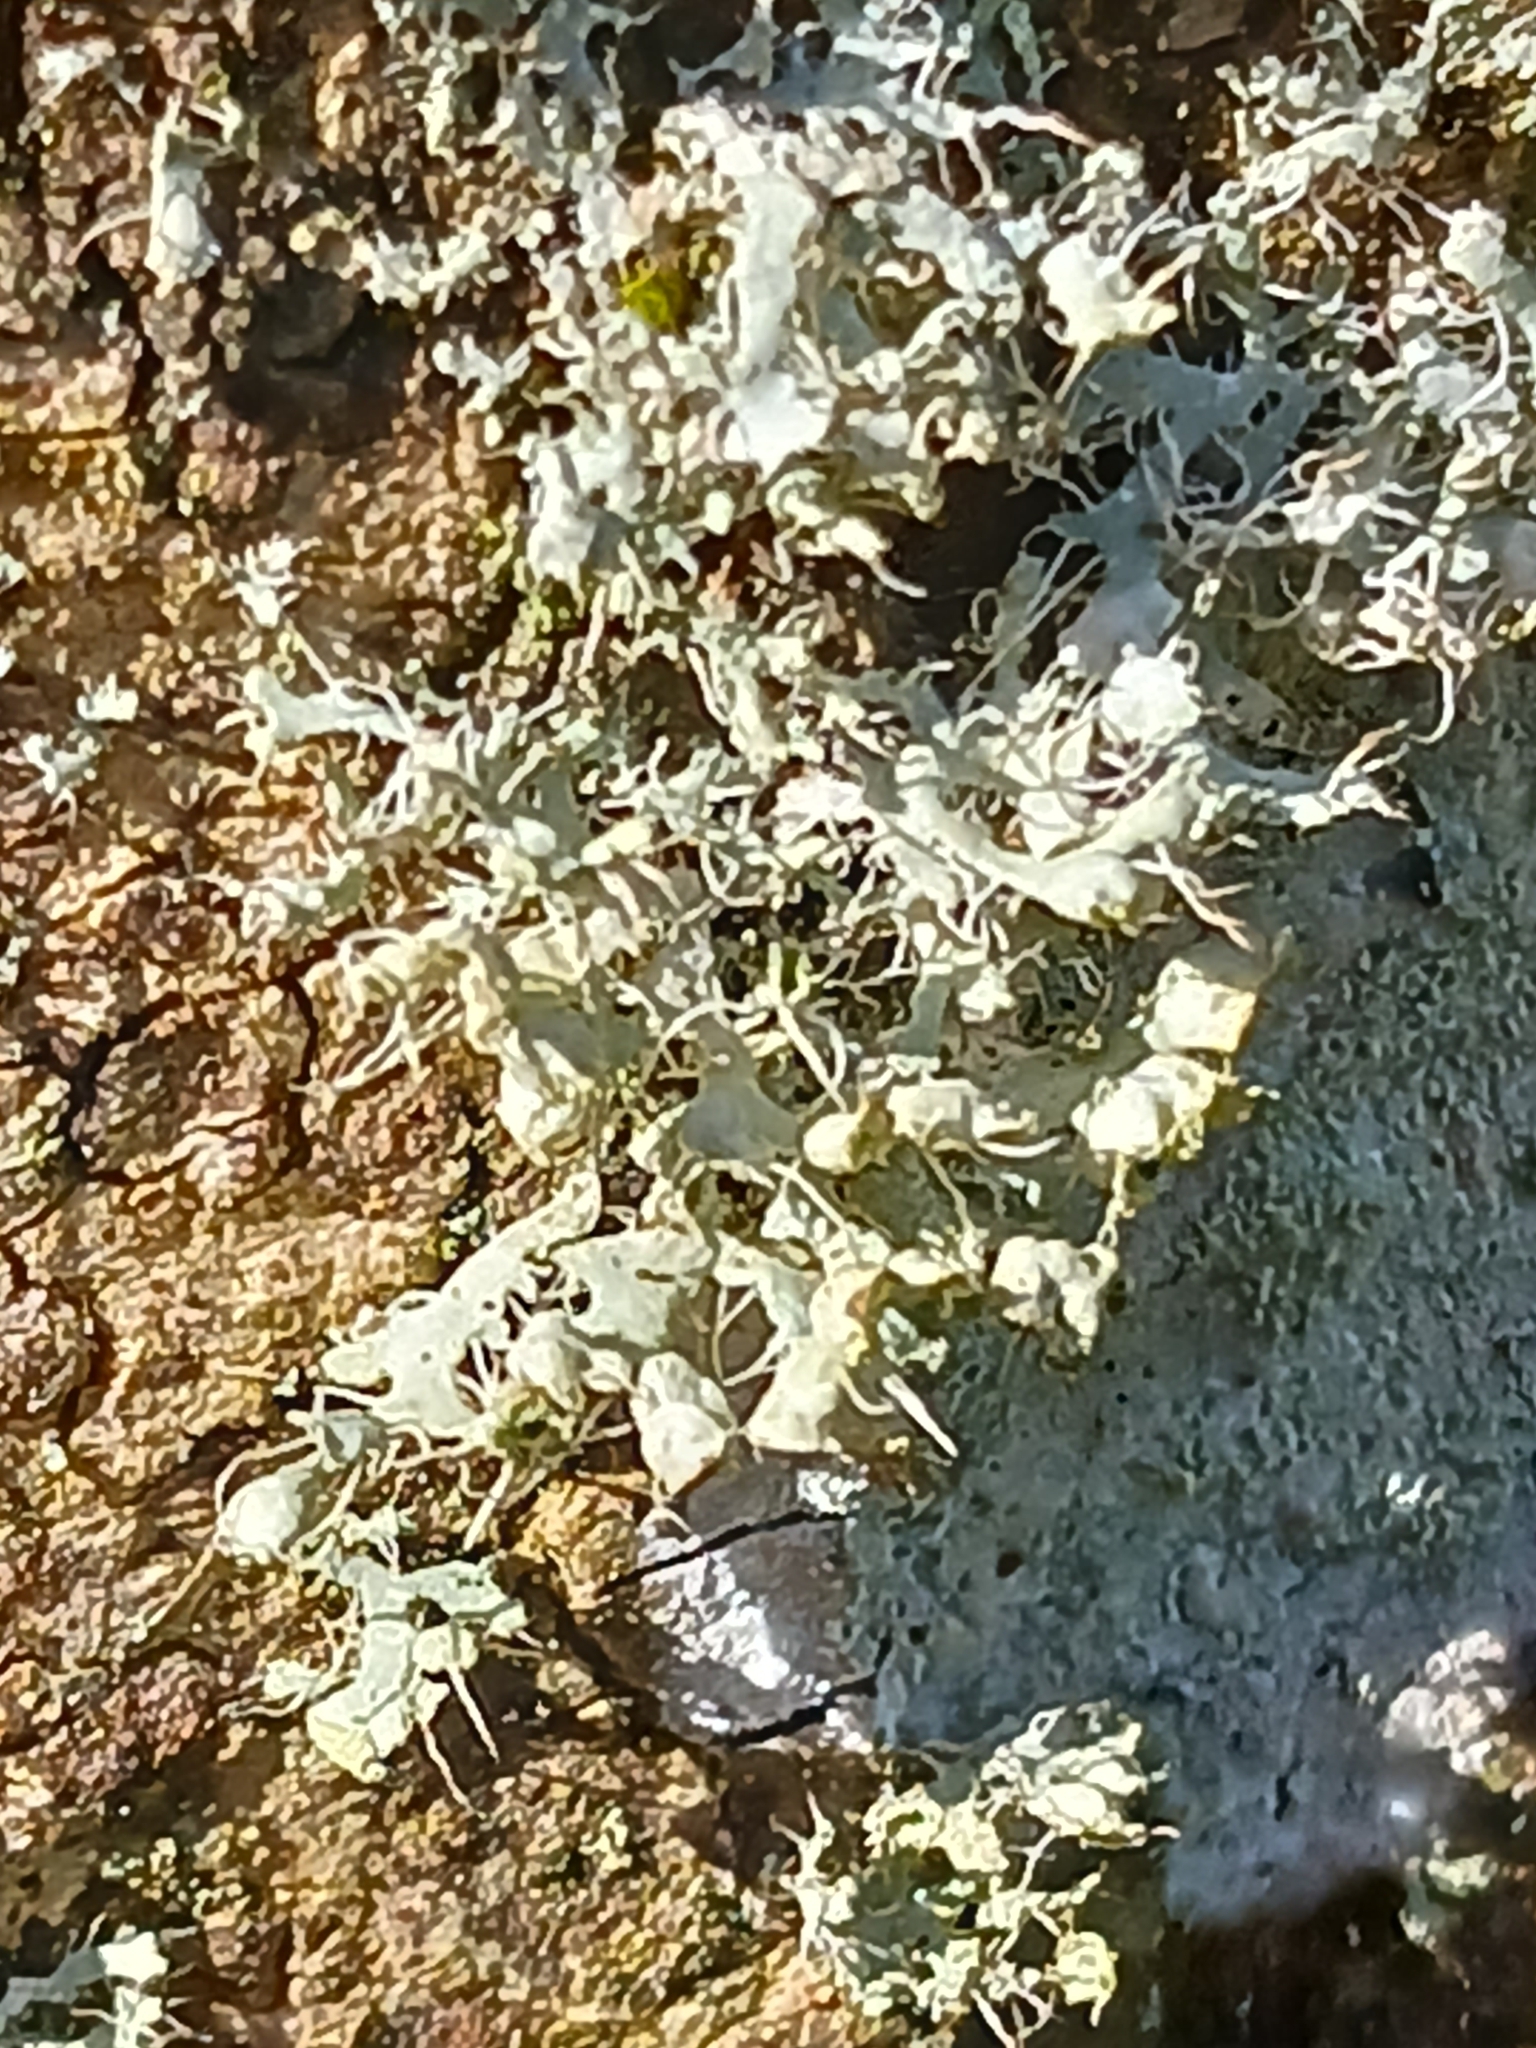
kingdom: Fungi
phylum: Ascomycota
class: Lecanoromycetes
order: Caliciales
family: Physciaceae
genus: Physcia
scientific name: Physcia adscendens
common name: Hooded rosette lichen
